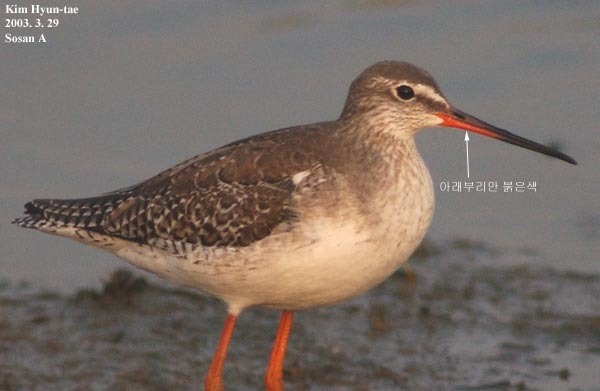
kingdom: Animalia
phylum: Chordata
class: Aves
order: Charadriiformes
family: Scolopacidae
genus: Tringa
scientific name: Tringa erythropus
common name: Spotted redshank
